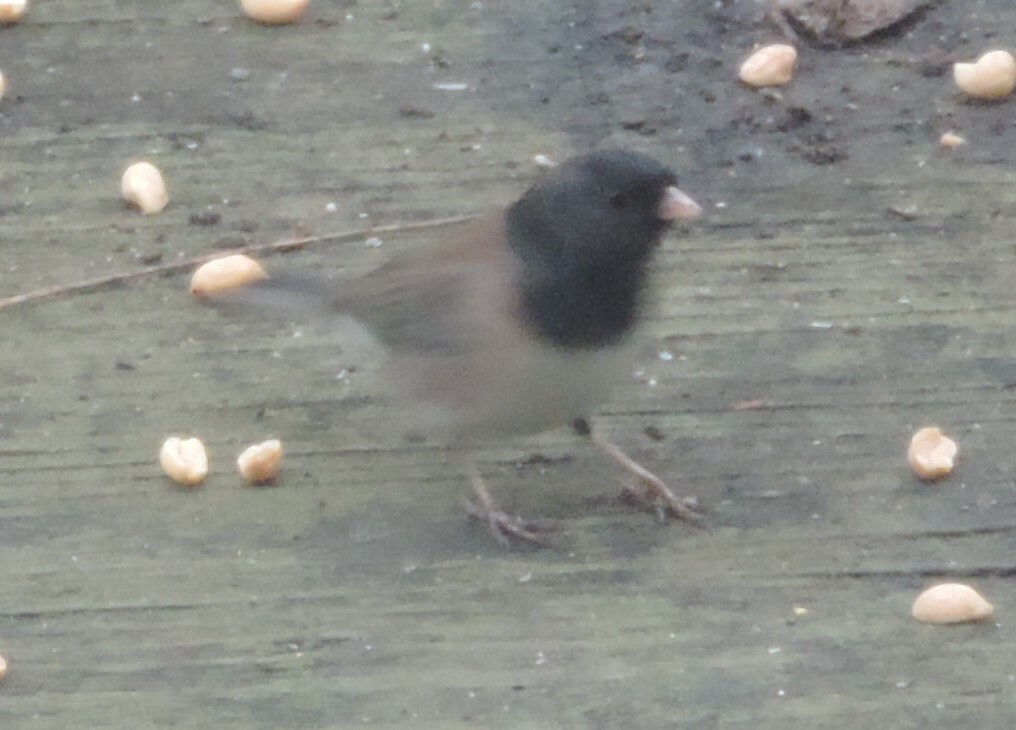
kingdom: Animalia
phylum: Chordata
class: Aves
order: Passeriformes
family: Passerellidae
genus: Junco
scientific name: Junco hyemalis
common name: Dark-eyed junco
